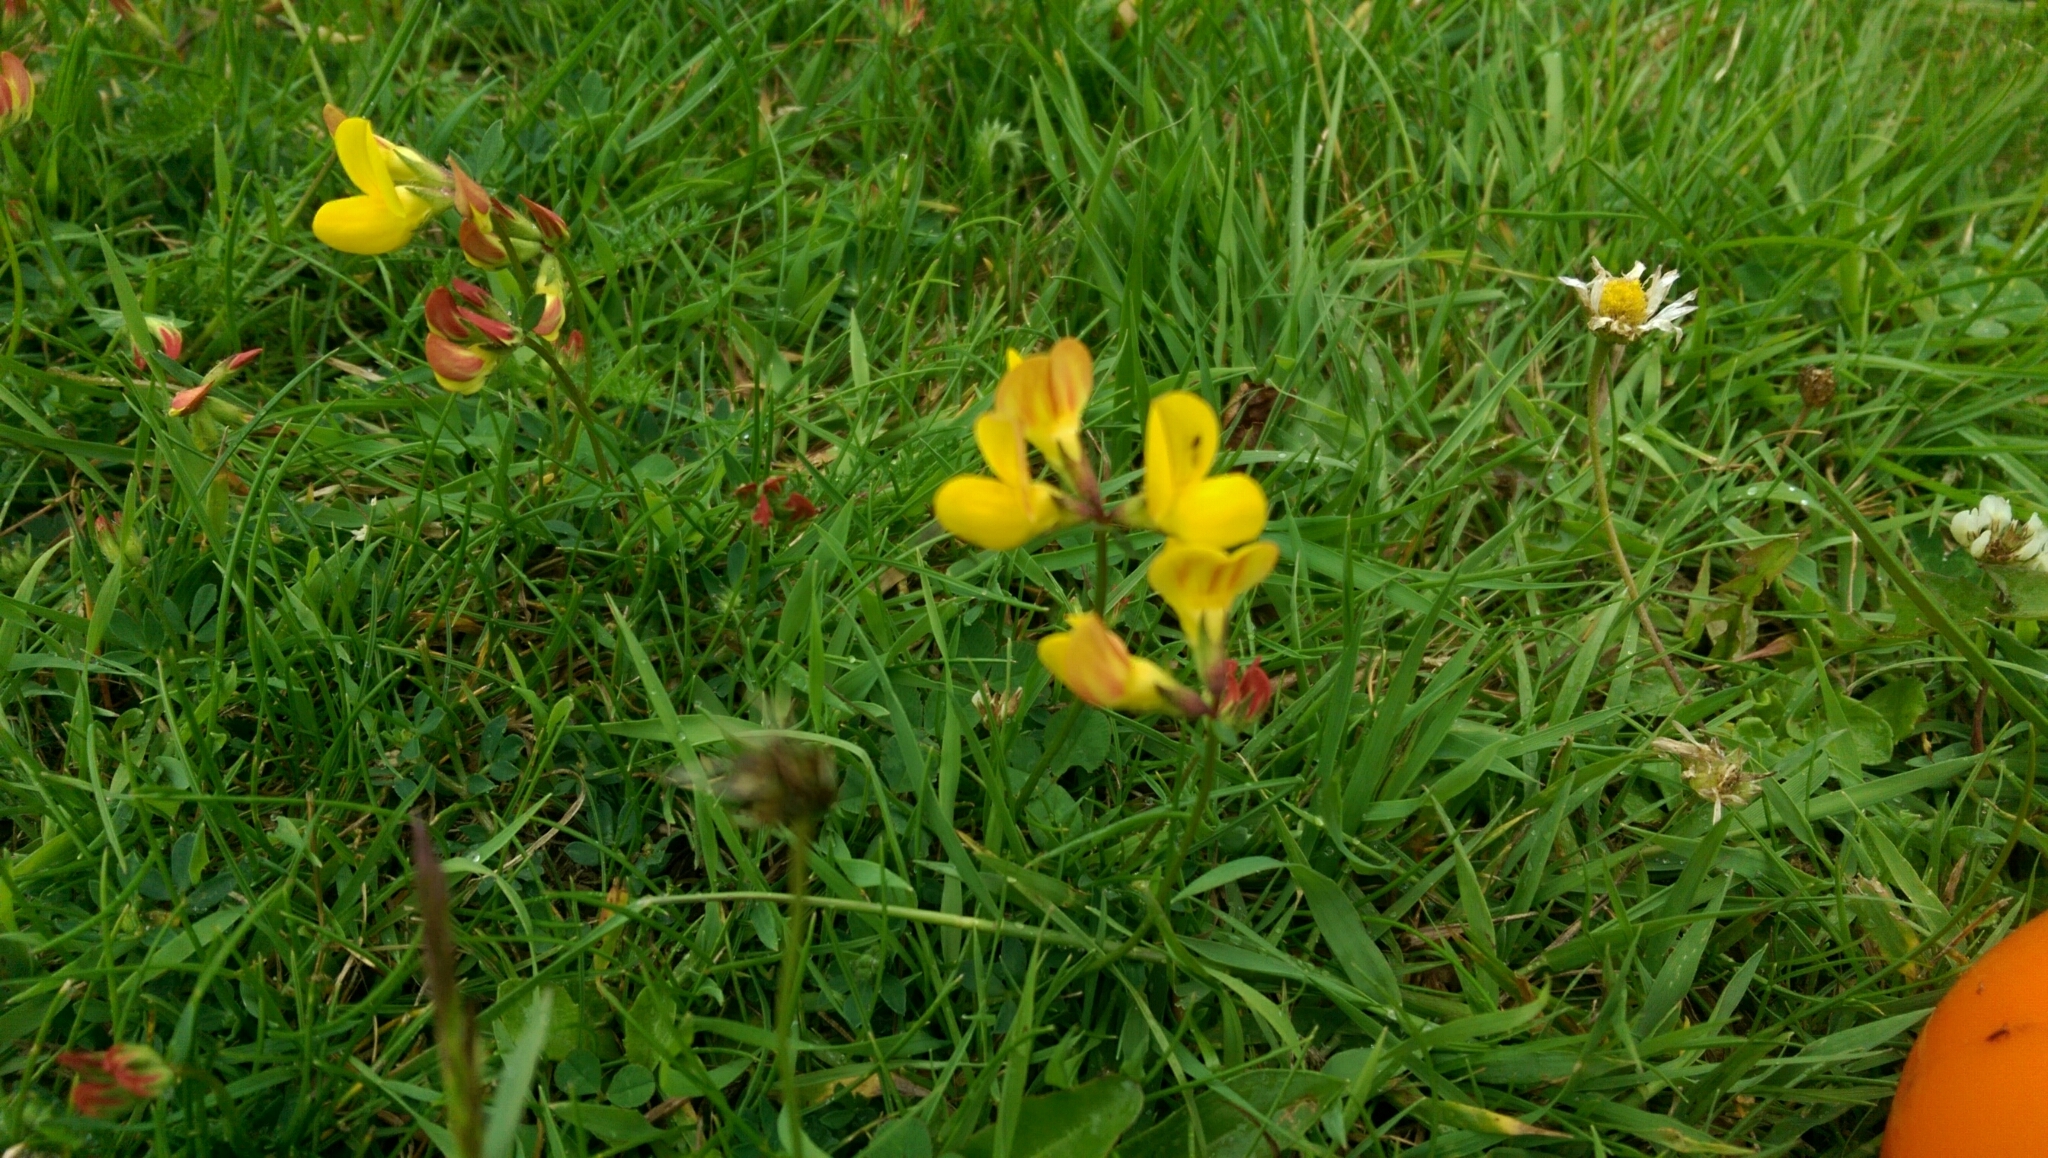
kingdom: Plantae
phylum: Tracheophyta
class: Magnoliopsida
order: Fabales
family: Fabaceae
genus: Lotus
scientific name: Lotus corniculatus
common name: Common bird's-foot-trefoil
